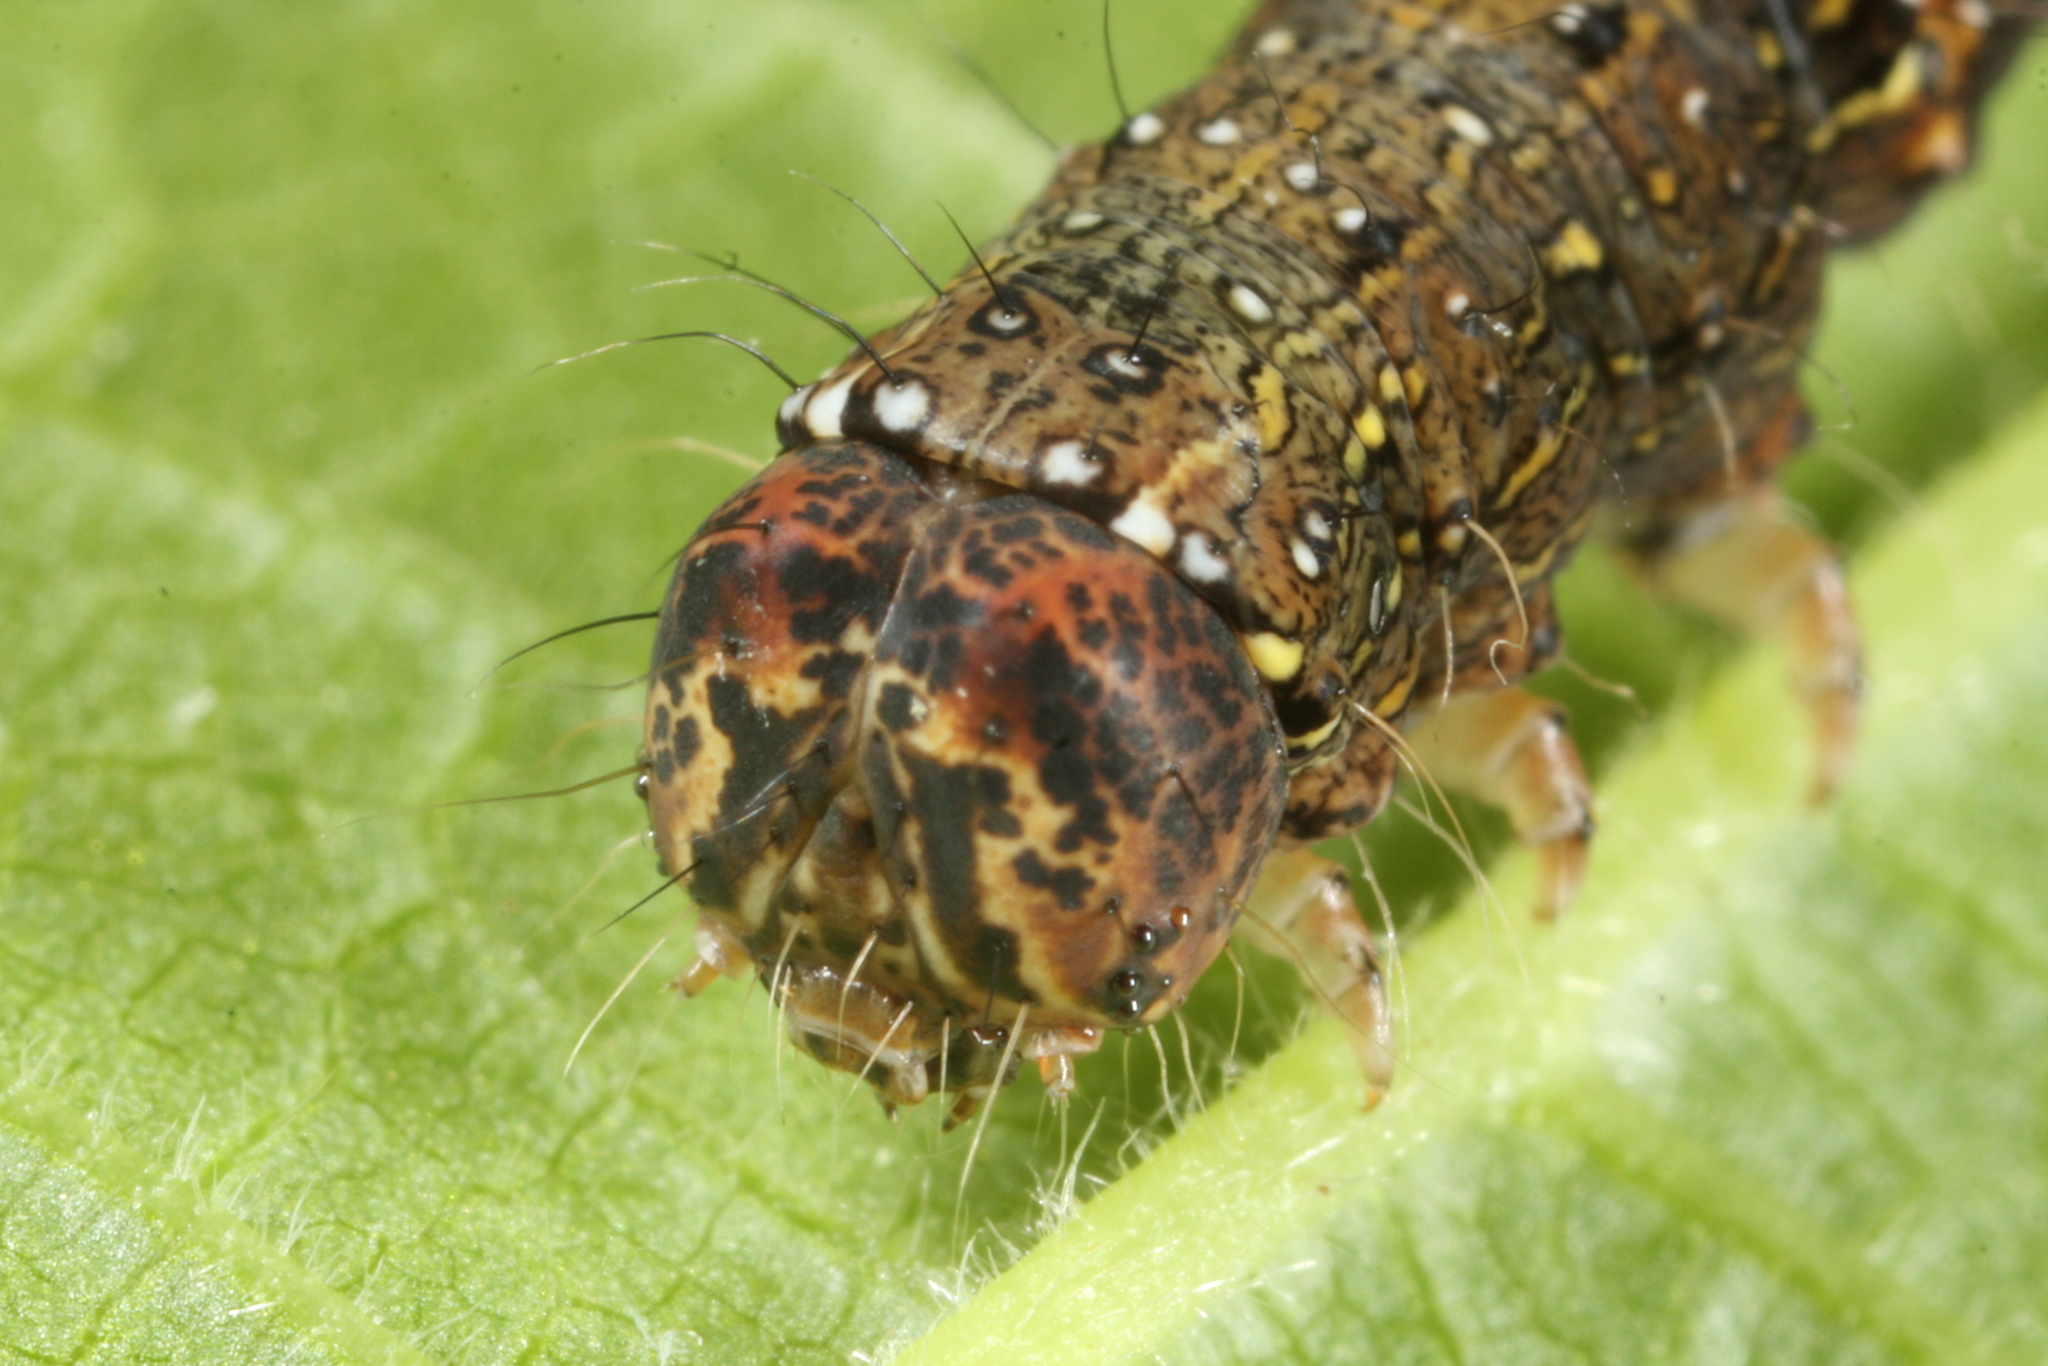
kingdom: Animalia
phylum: Arthropoda
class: Insecta
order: Lepidoptera
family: Noctuidae
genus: Allophyes
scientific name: Allophyes oxyacanthae
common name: Green-brindled crescent
